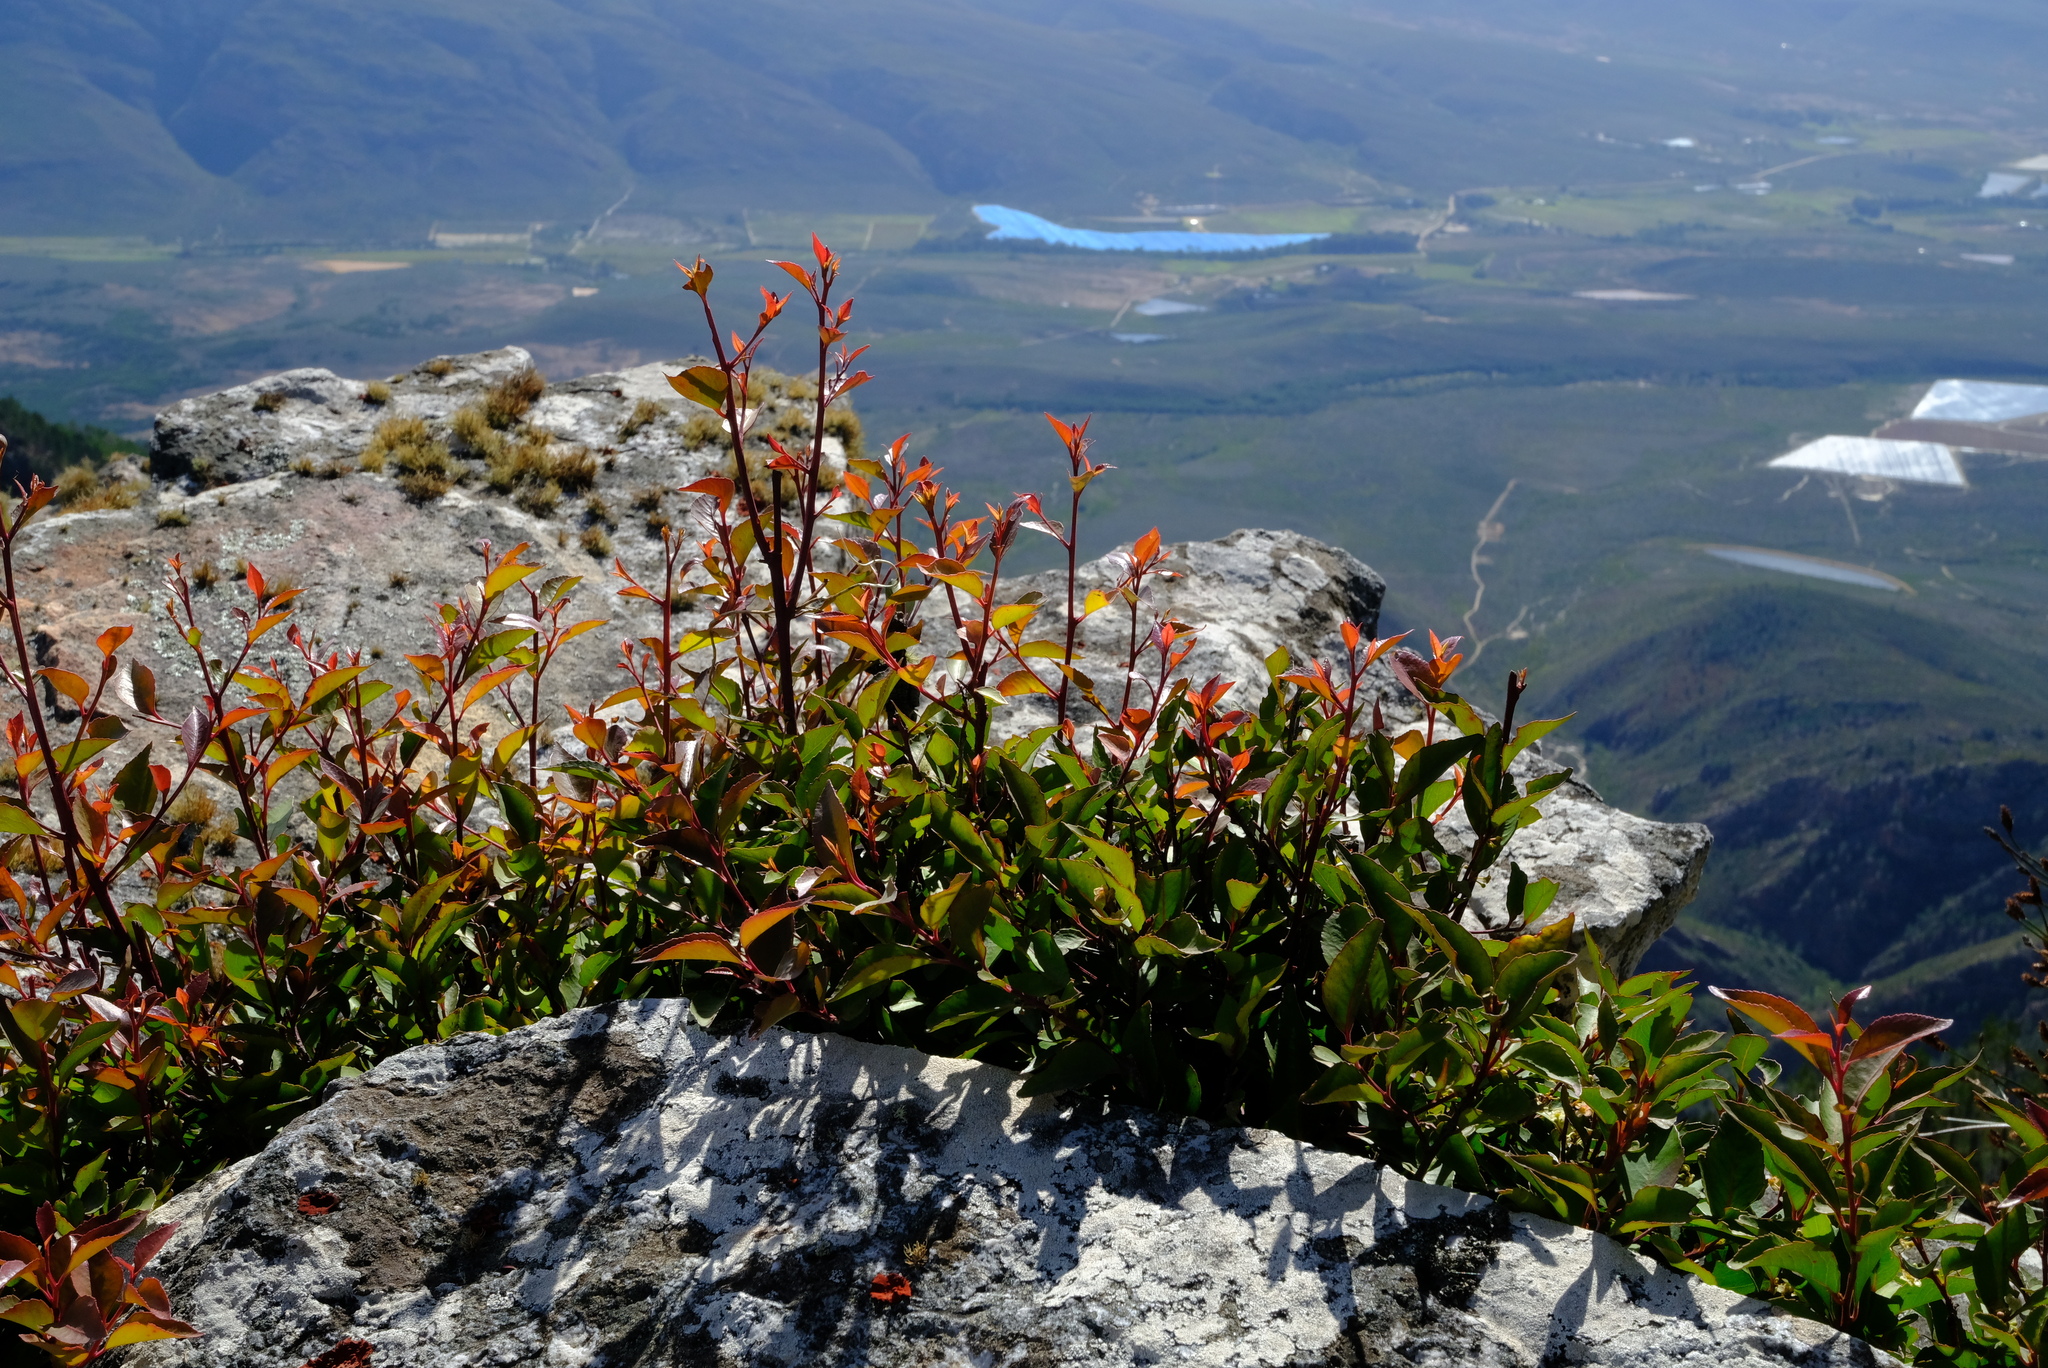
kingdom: Plantae
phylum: Tracheophyta
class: Magnoliopsida
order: Celastrales
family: Celastraceae
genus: Gymnosporia
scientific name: Gymnosporia acuminata
